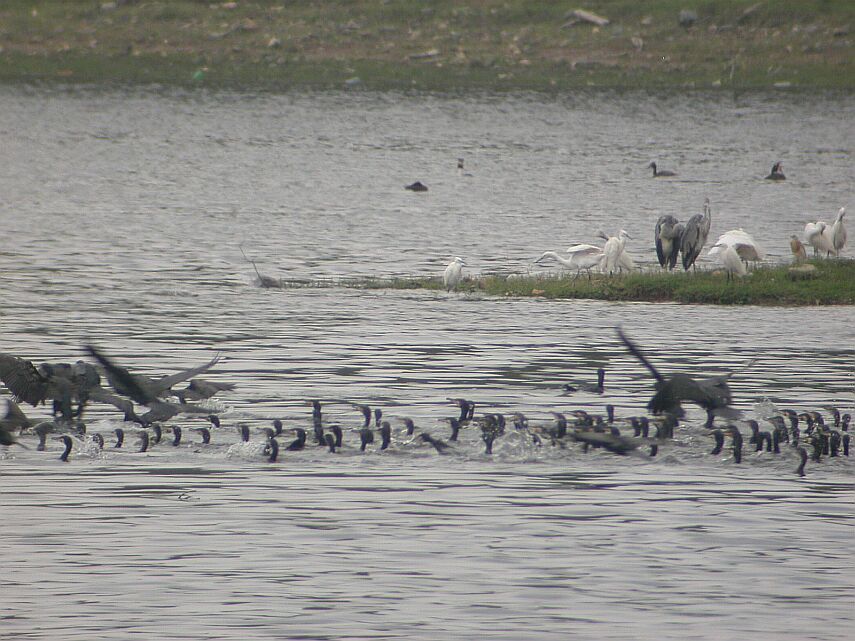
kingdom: Animalia
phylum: Chordata
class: Aves
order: Suliformes
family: Phalacrocoracidae
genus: Phalacrocorax
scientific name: Phalacrocorax carbo
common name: Great cormorant
